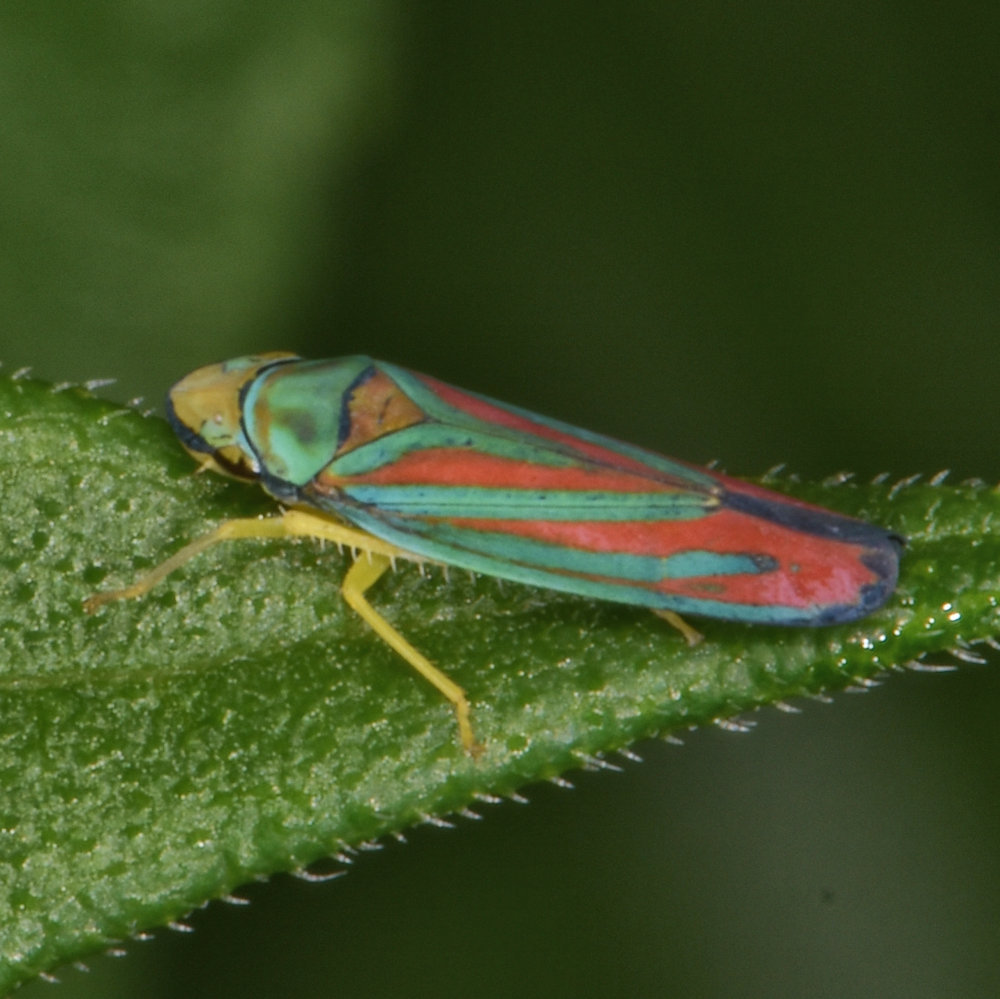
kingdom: Animalia
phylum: Arthropoda
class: Insecta
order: Hemiptera
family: Cicadellidae
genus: Graphocephala
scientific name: Graphocephala coccinea
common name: Candy-striped leafhopper
